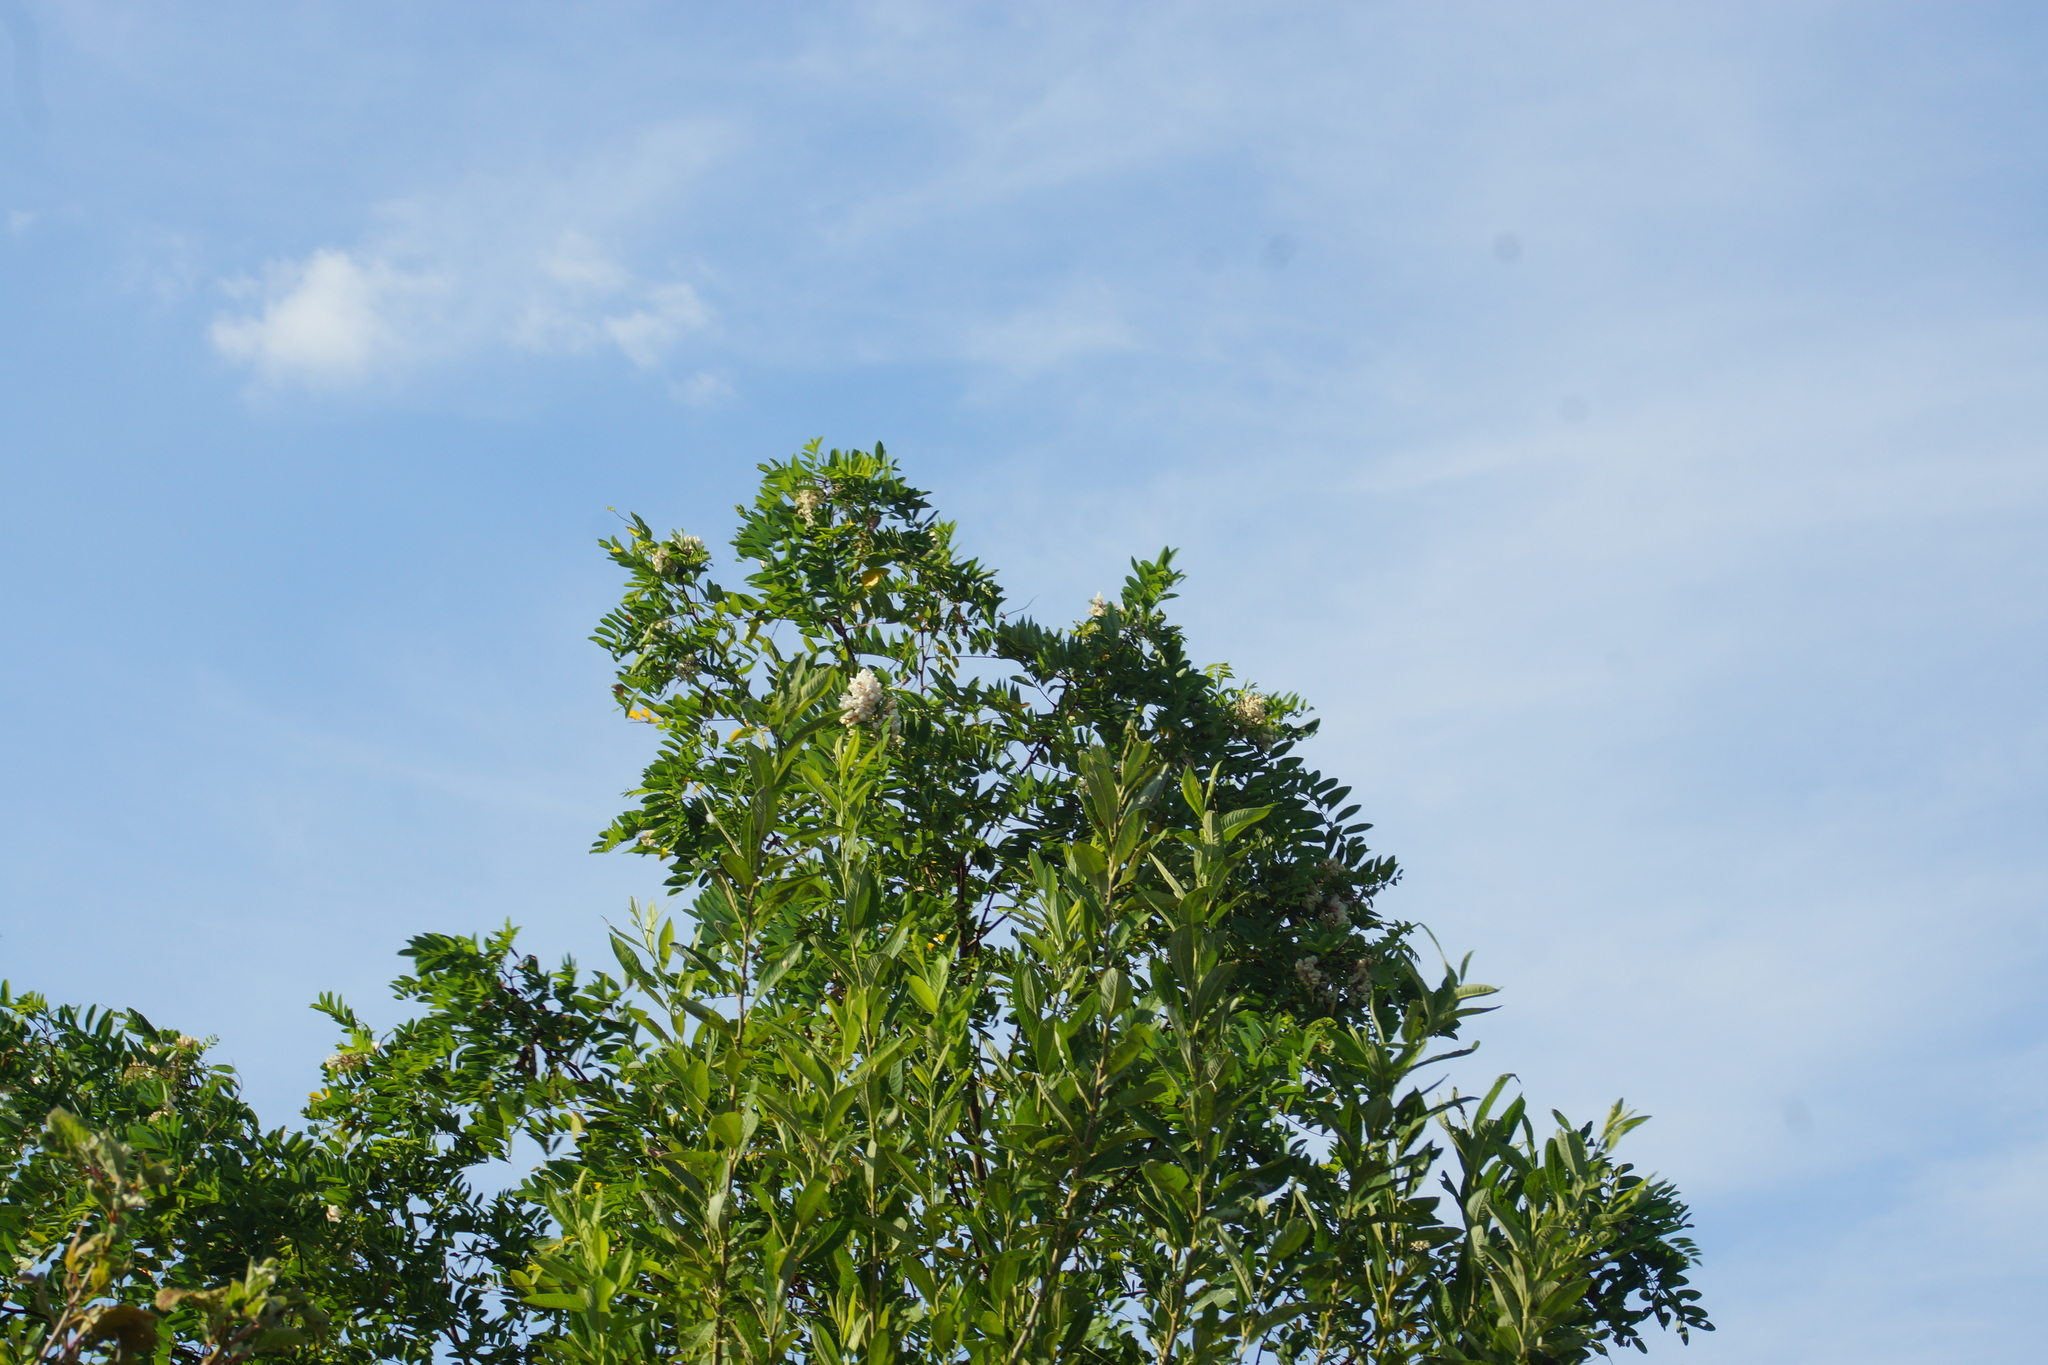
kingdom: Plantae
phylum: Tracheophyta
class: Magnoliopsida
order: Fabales
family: Fabaceae
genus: Robinia
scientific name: Robinia pseudoacacia
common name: Black locust
